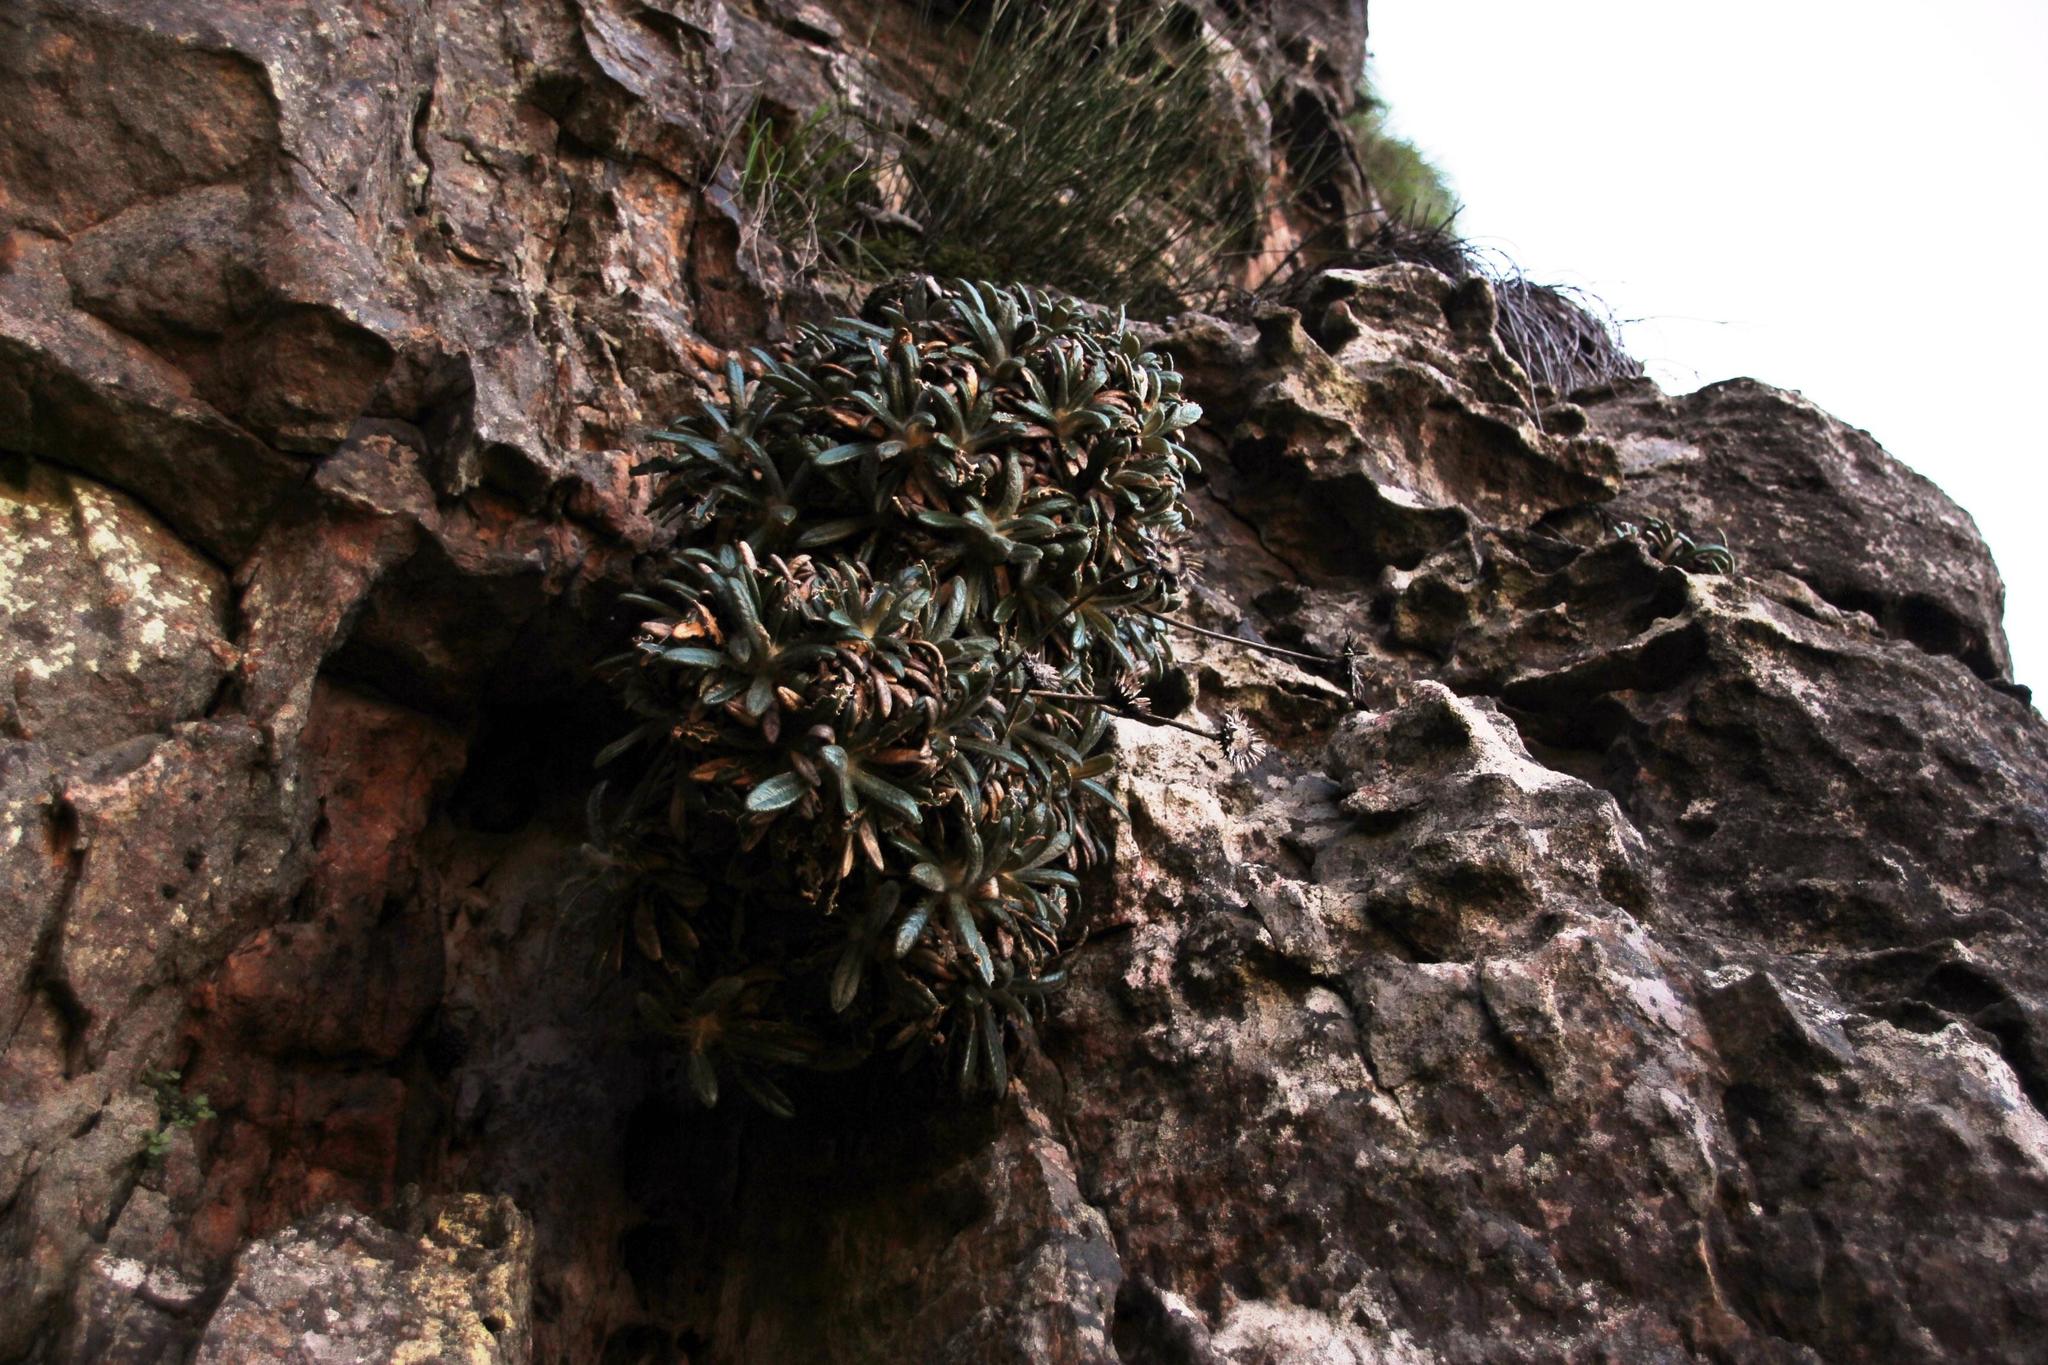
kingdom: Plantae
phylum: Tracheophyta
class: Magnoliopsida
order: Asterales
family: Asteraceae
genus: Oldenburgia
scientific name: Oldenburgia intermedia
